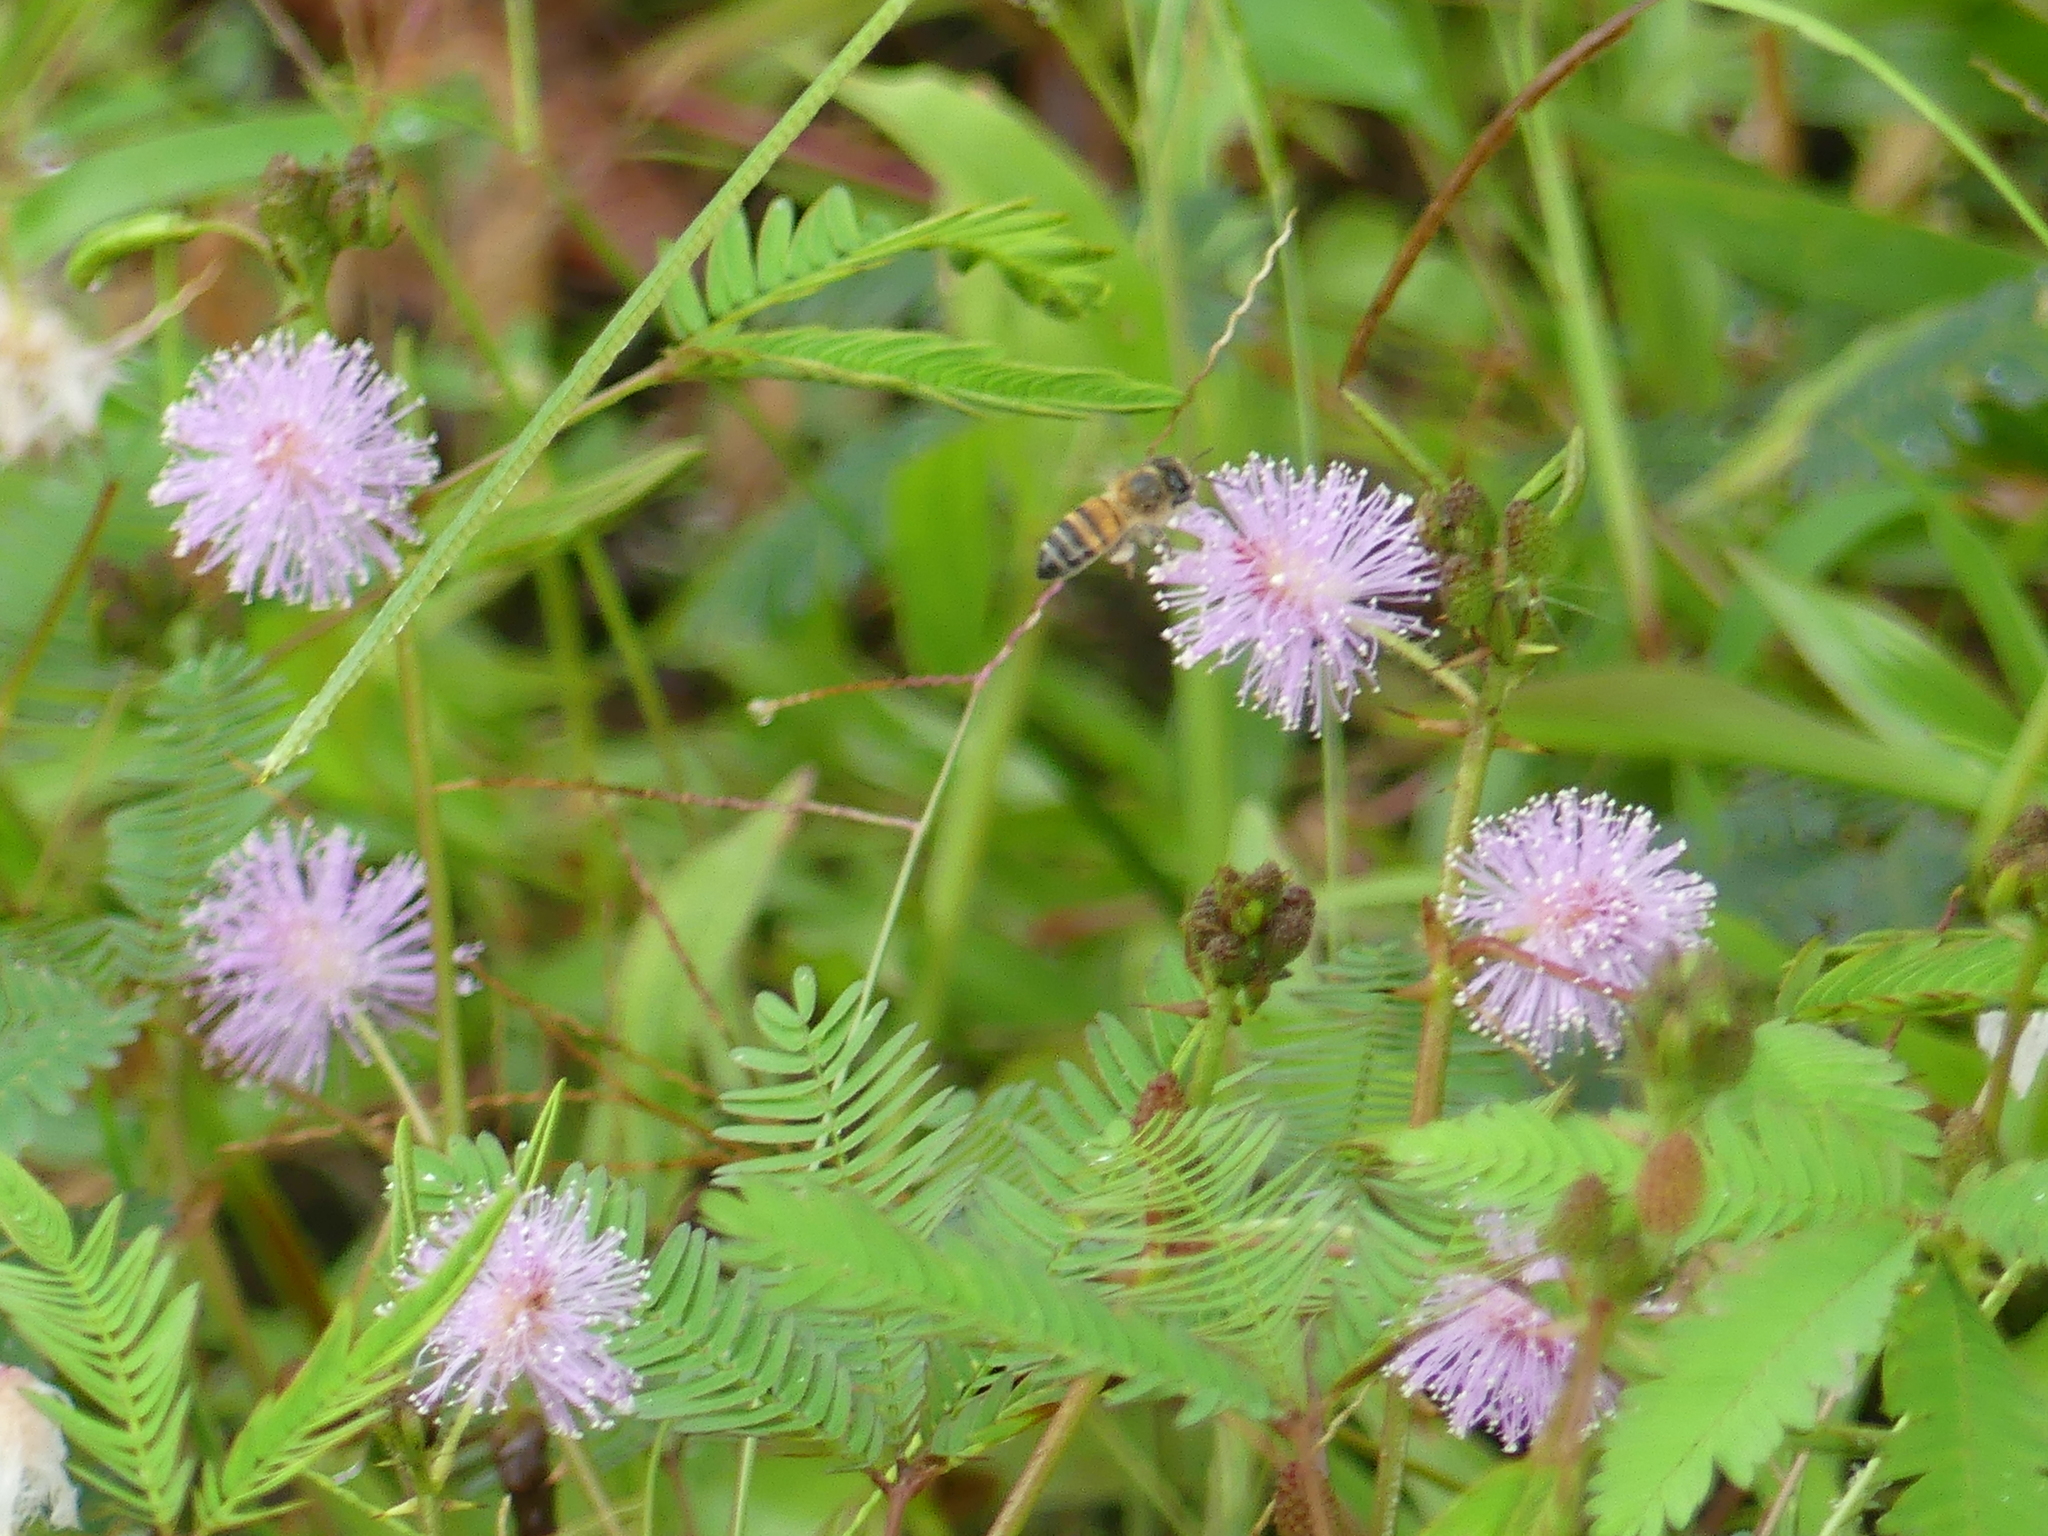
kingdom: Animalia
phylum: Arthropoda
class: Insecta
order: Hymenoptera
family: Apidae
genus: Apis
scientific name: Apis mellifera
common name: Honey bee
